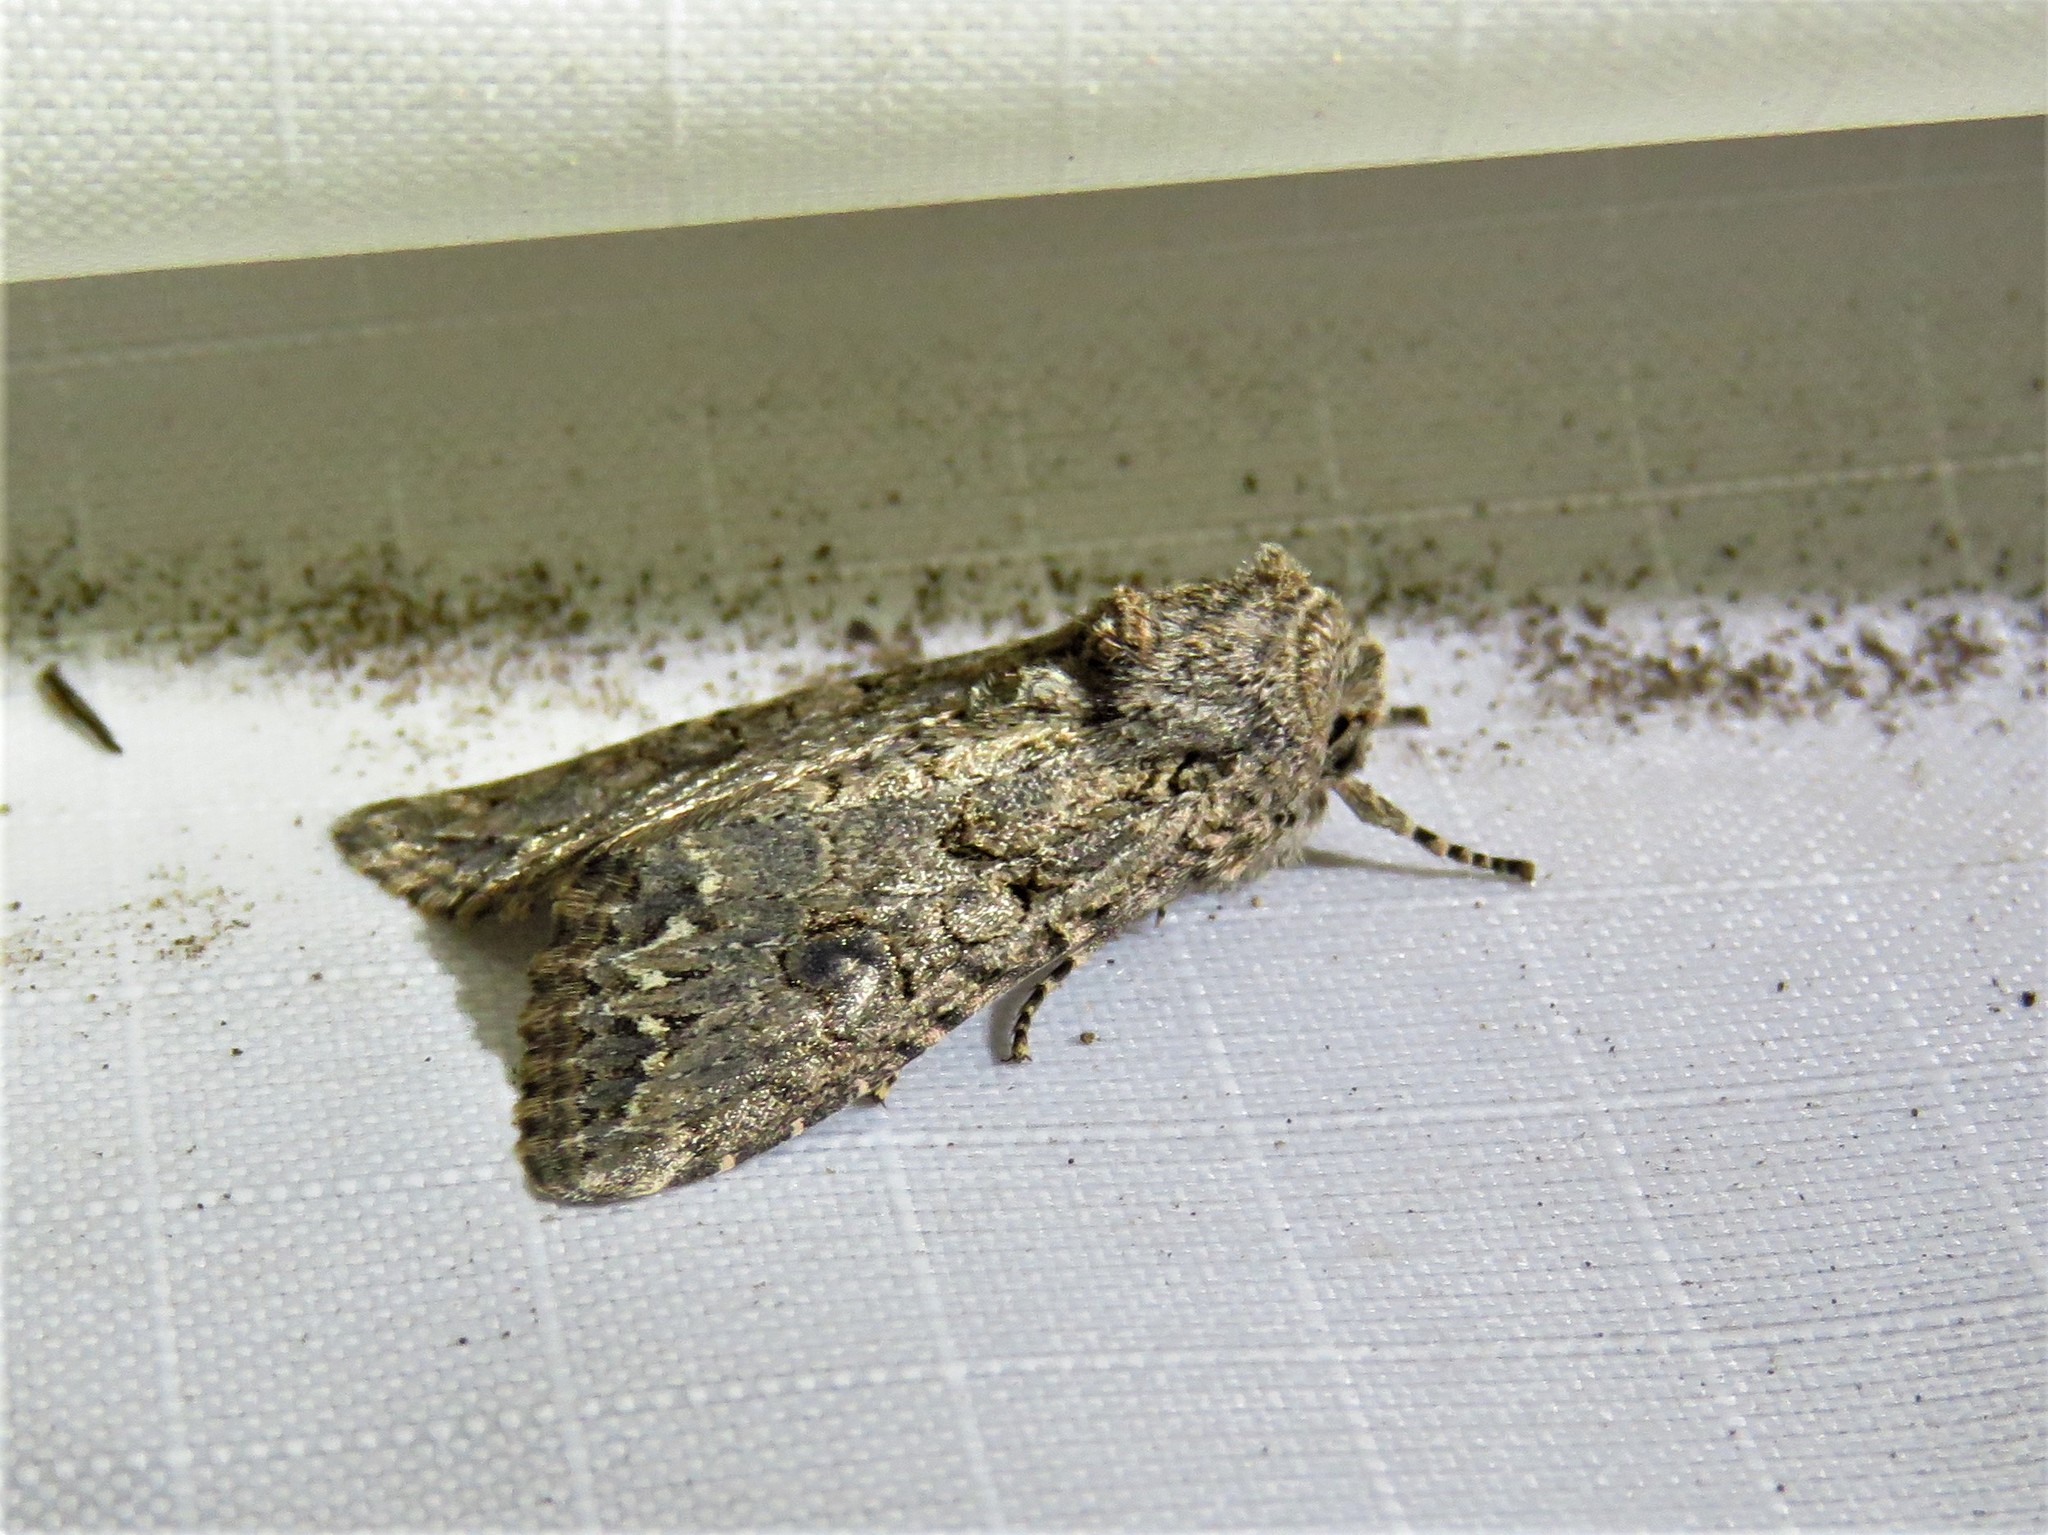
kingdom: Animalia
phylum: Arthropoda
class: Insecta
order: Lepidoptera
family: Noctuidae
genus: Ulolonche
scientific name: Ulolonche orbiculata
